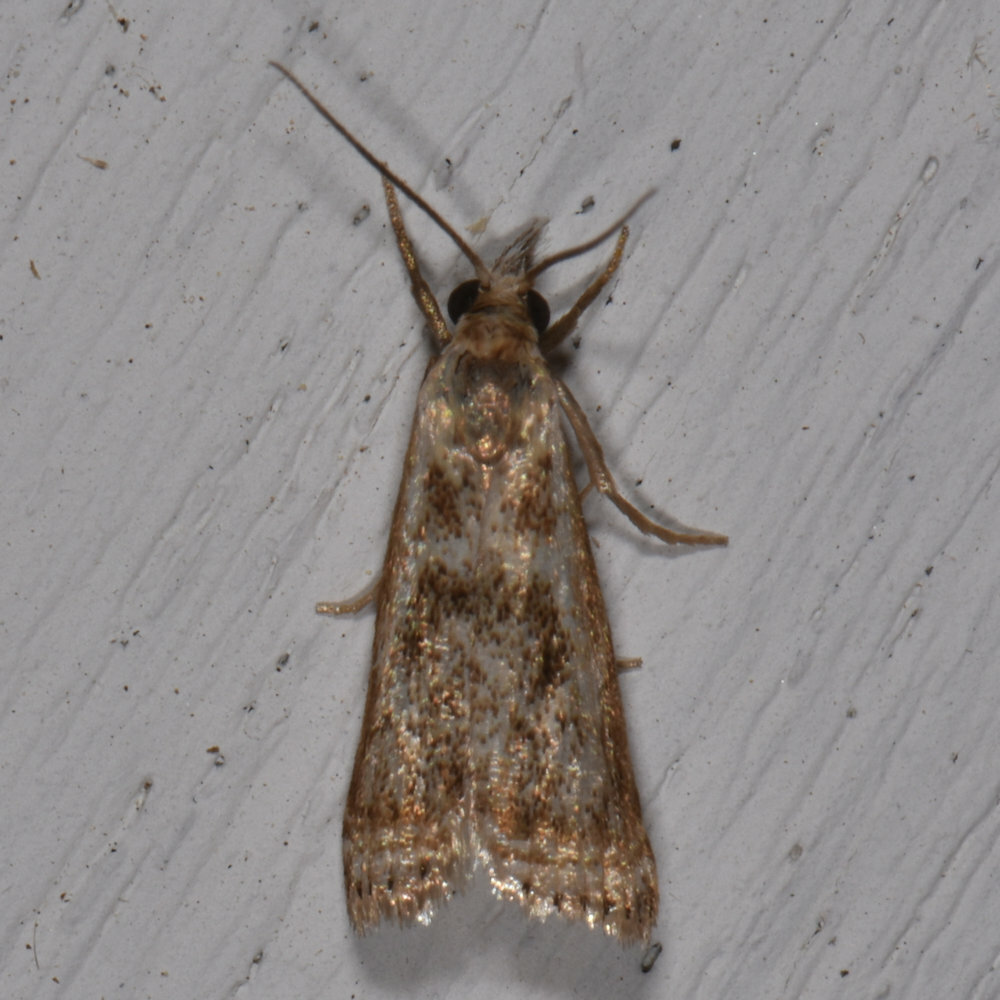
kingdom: Animalia
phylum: Arthropoda
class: Insecta
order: Lepidoptera
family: Crambidae
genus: Microcrambus
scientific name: Microcrambus elegans
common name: Elegant grass-veneer
